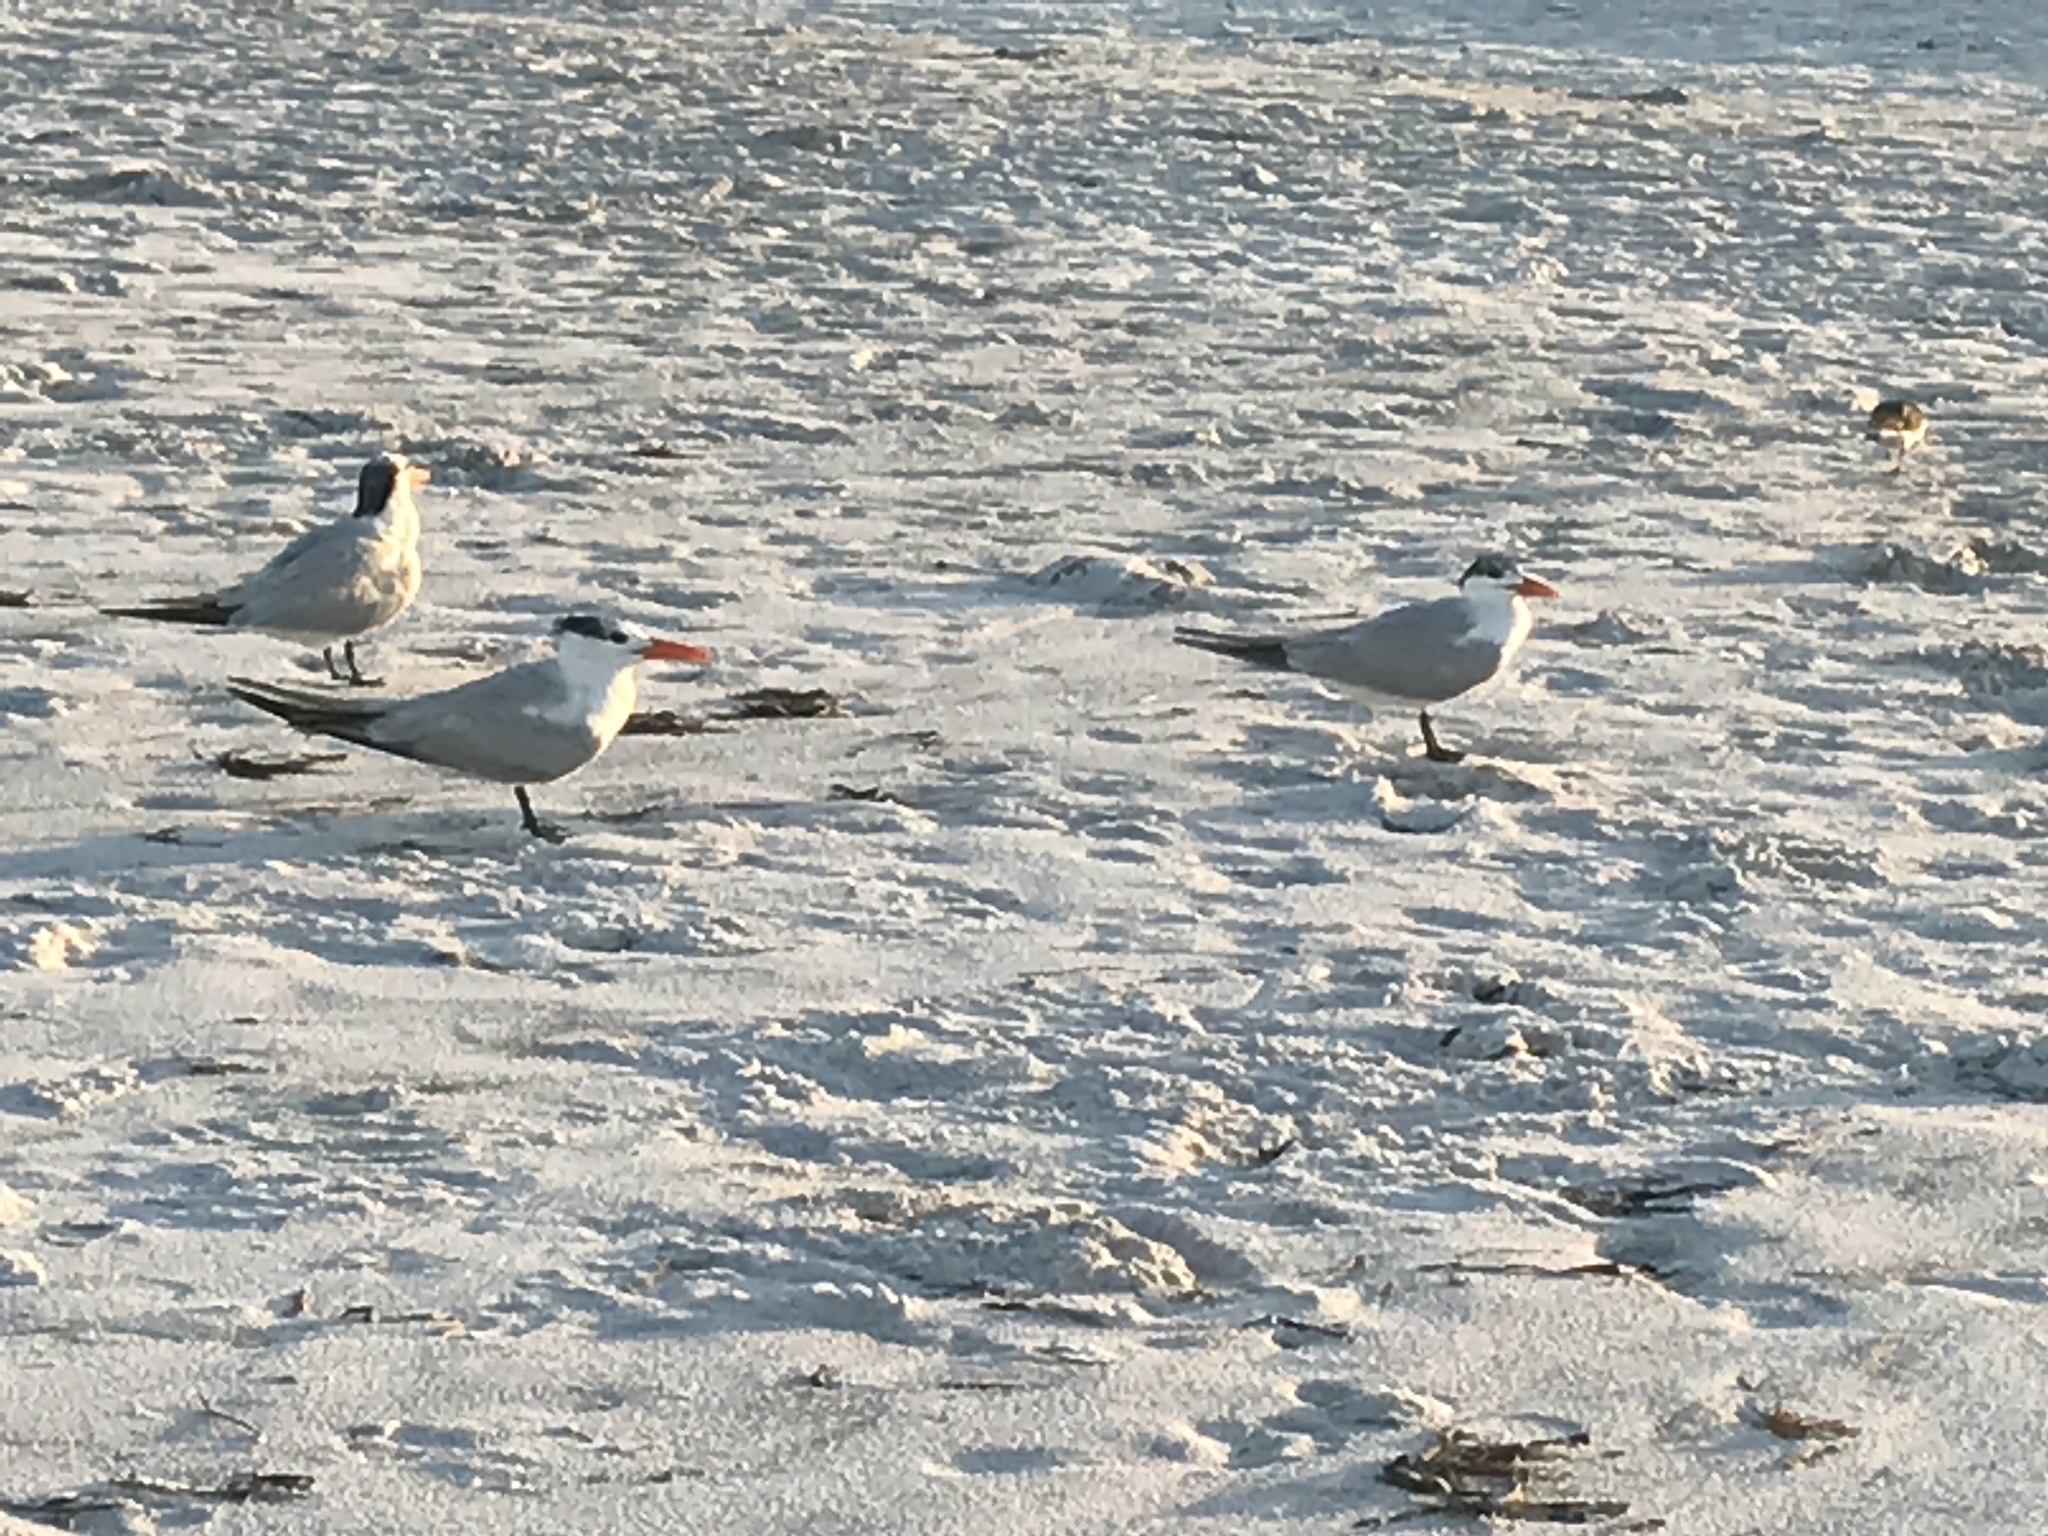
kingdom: Animalia
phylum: Chordata
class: Aves
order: Charadriiformes
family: Laridae
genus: Thalasseus
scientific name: Thalasseus maximus
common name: Royal tern
